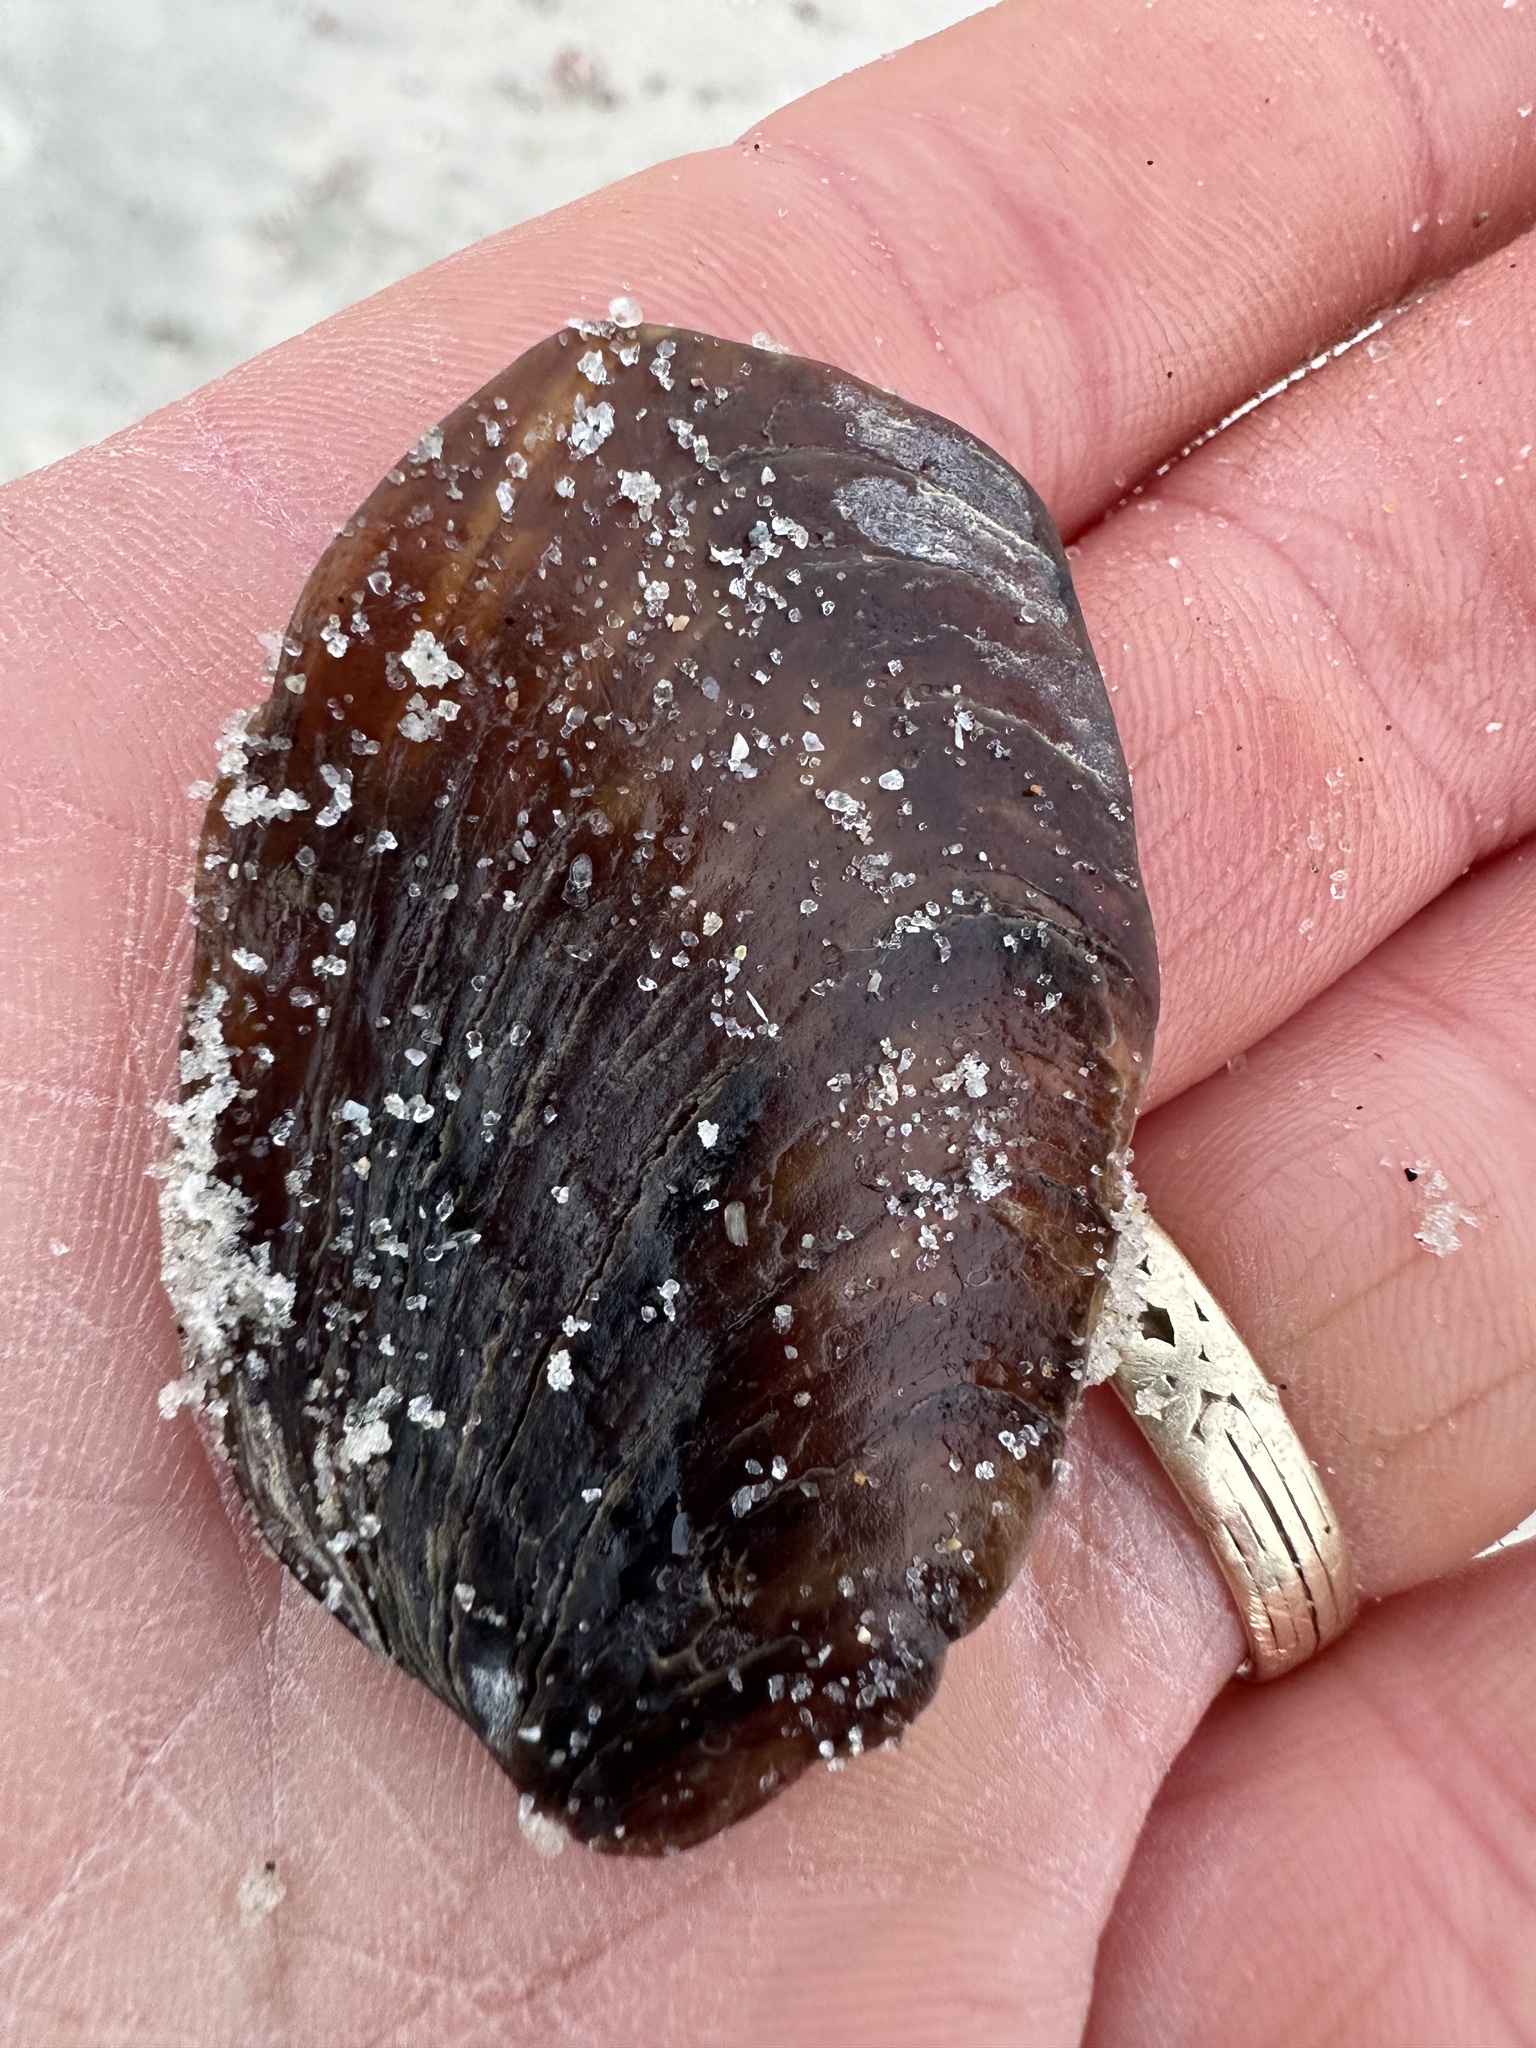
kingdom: Animalia
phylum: Mollusca
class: Gastropoda
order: Neogastropoda
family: Busyconidae
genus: Busycotypus
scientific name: Busycotypus canaliculatus
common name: Channeled whelk
